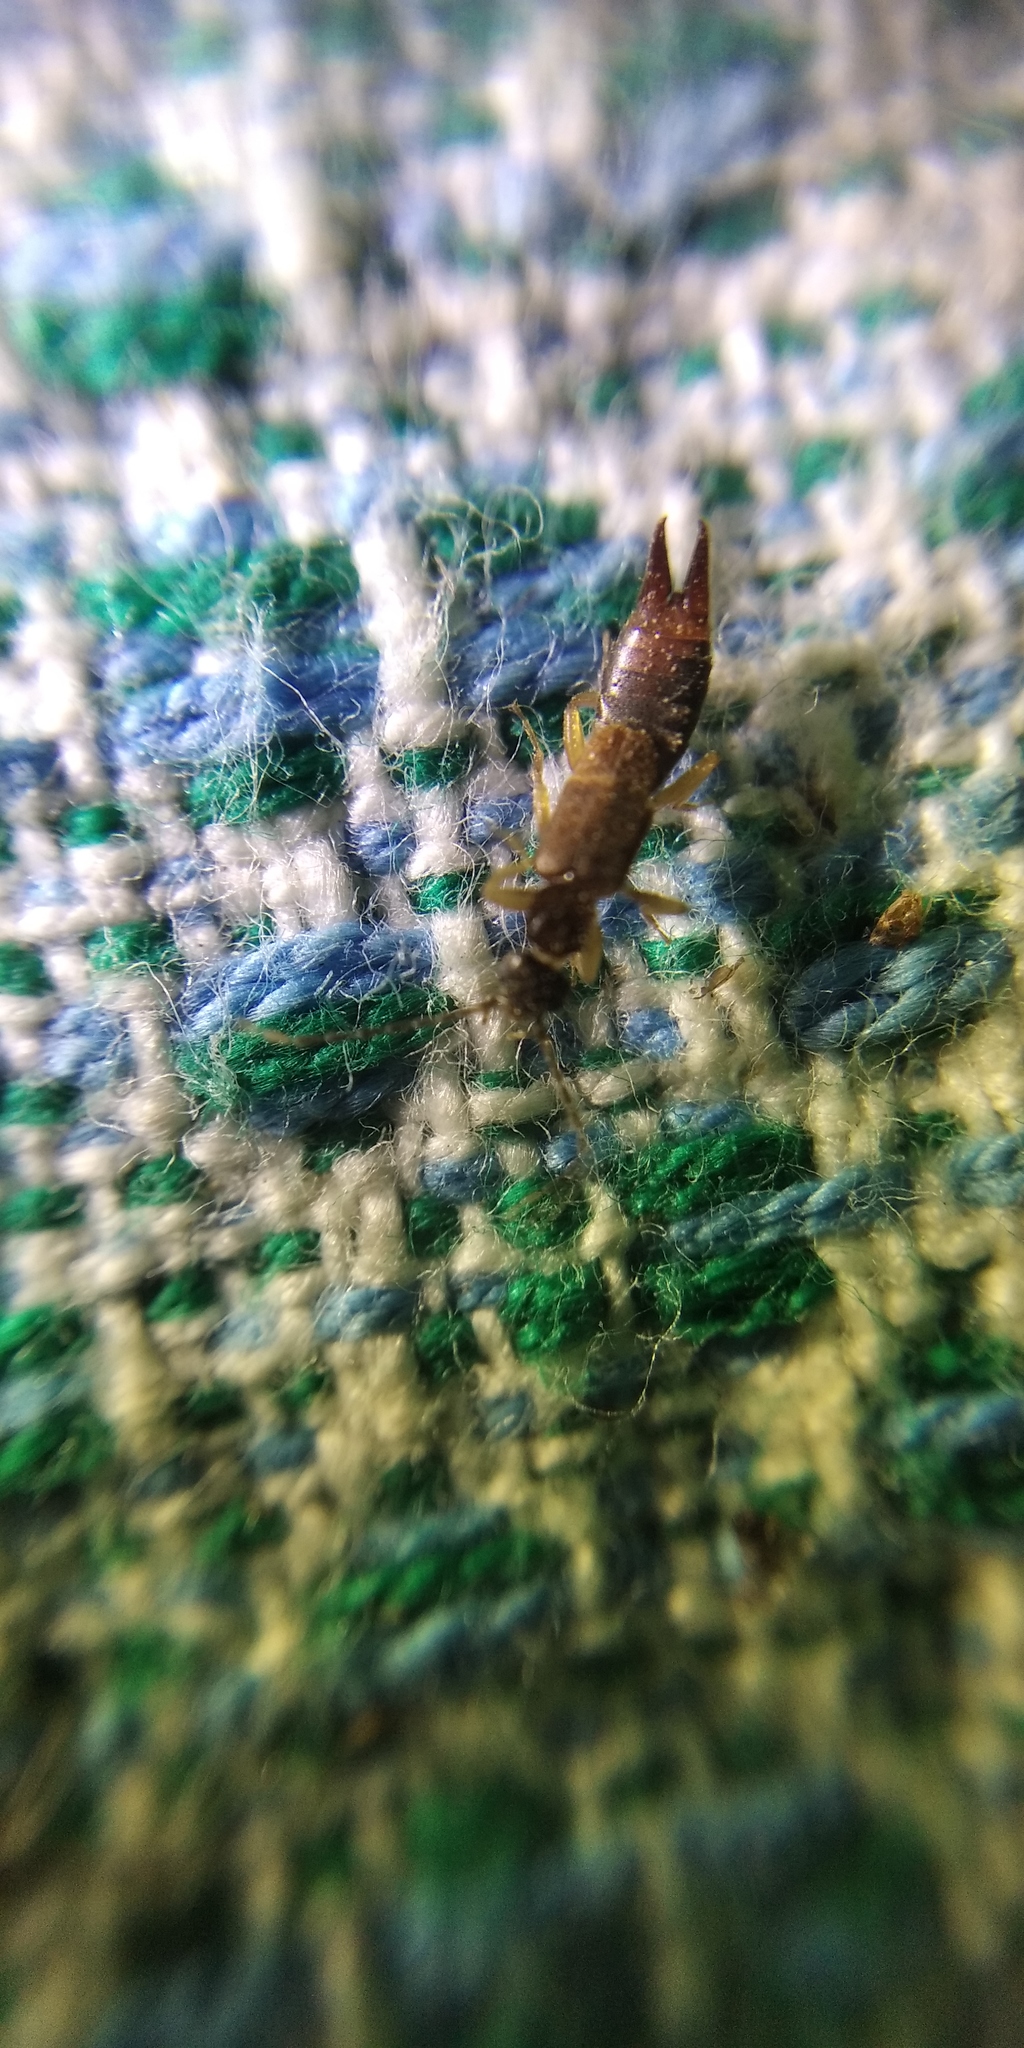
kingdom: Animalia
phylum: Arthropoda
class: Insecta
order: Dermaptera
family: Spongiphoridae
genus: Labia
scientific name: Labia minor
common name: Lesser earwig
